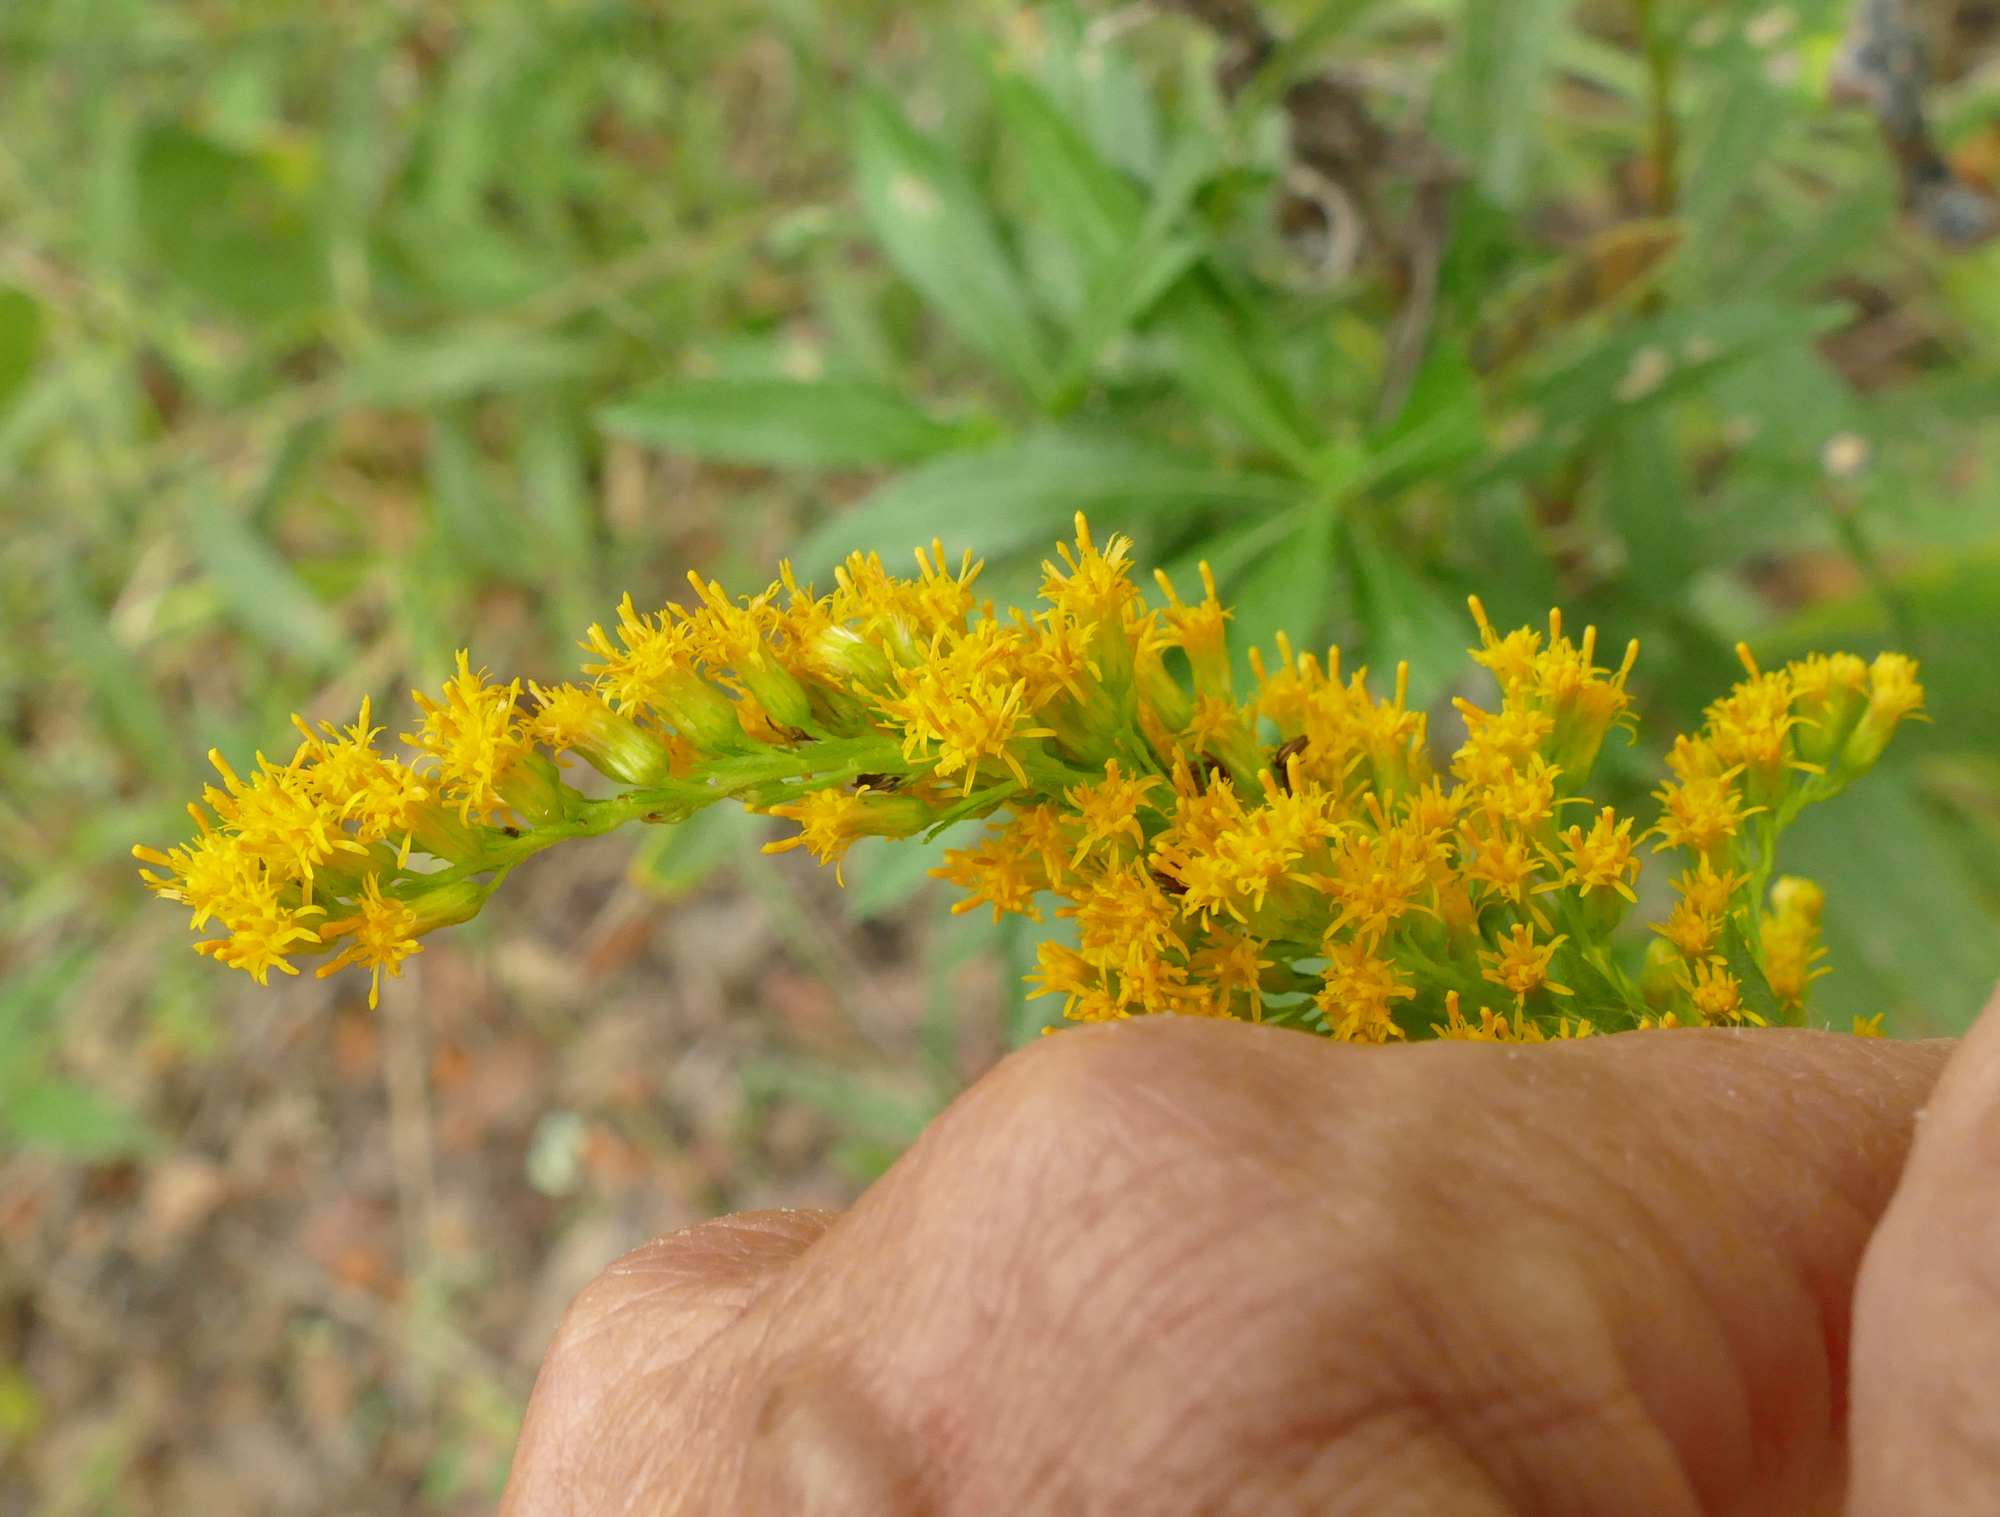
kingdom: Plantae
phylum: Tracheophyta
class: Magnoliopsida
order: Asterales
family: Asteraceae
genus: Solidago
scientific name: Solidago altissima
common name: Late goldenrod
